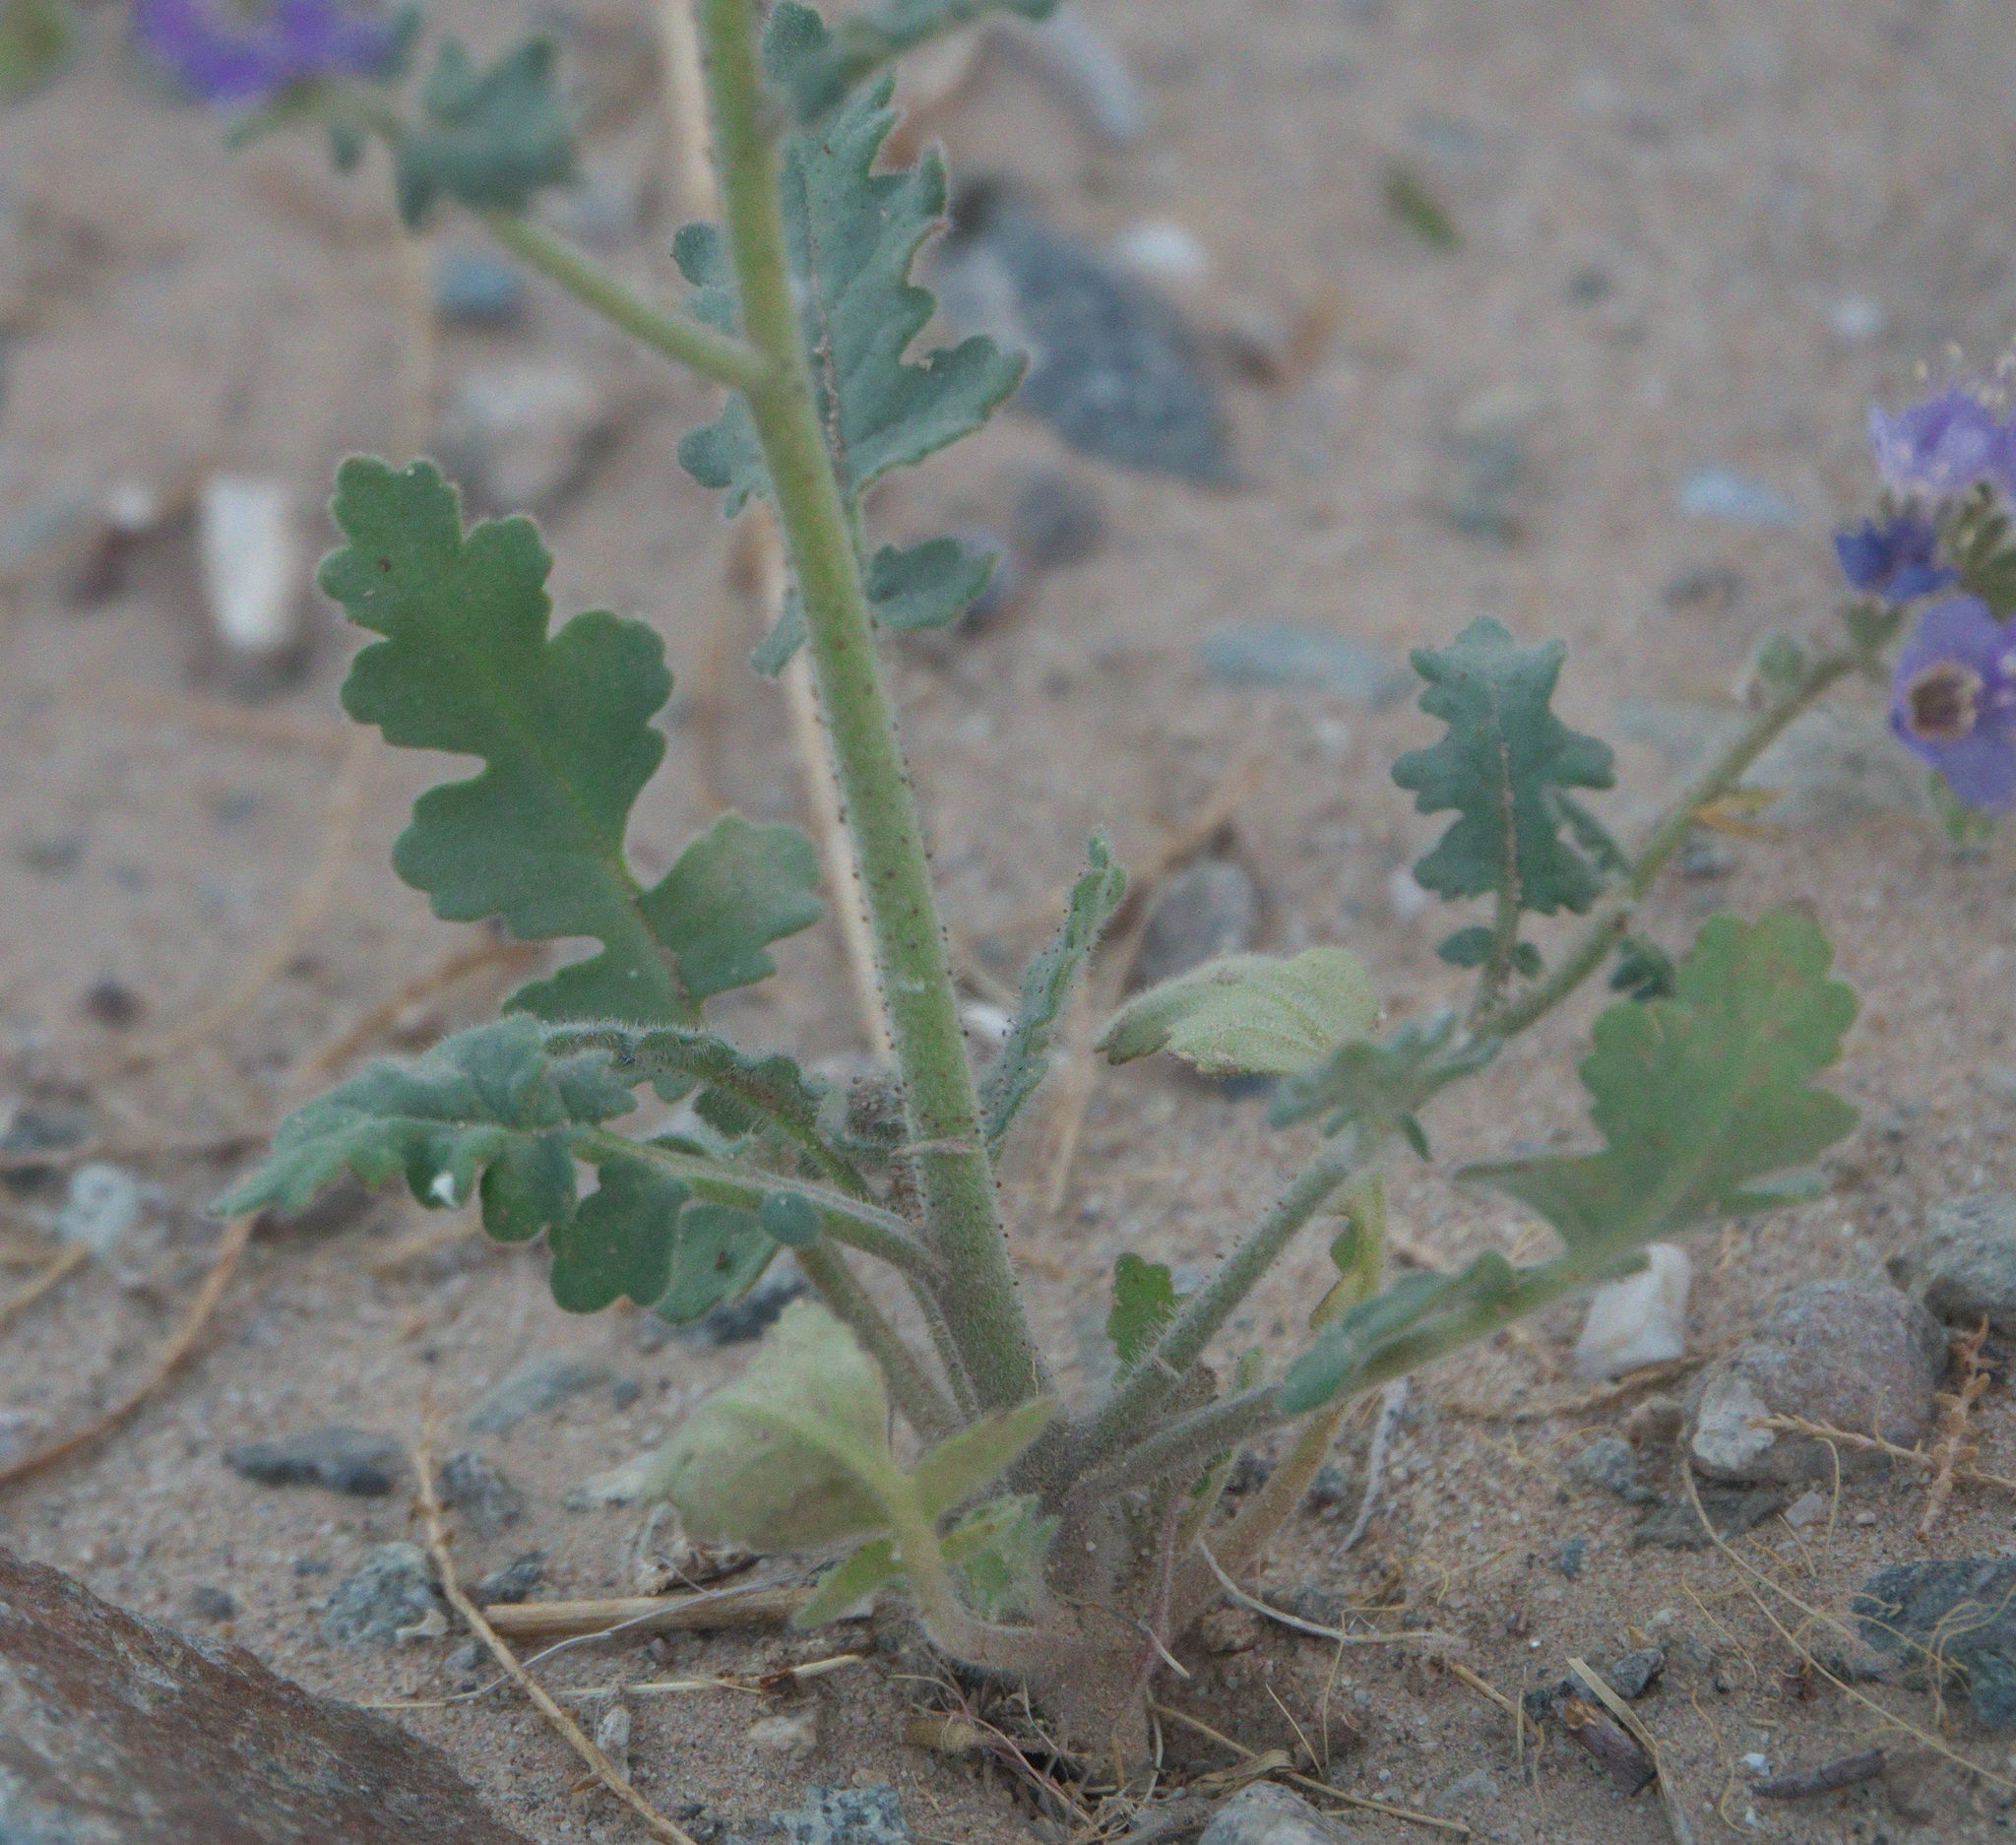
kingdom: Plantae
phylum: Tracheophyta
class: Magnoliopsida
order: Boraginales
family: Hydrophyllaceae
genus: Phacelia
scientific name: Phacelia crenulata
